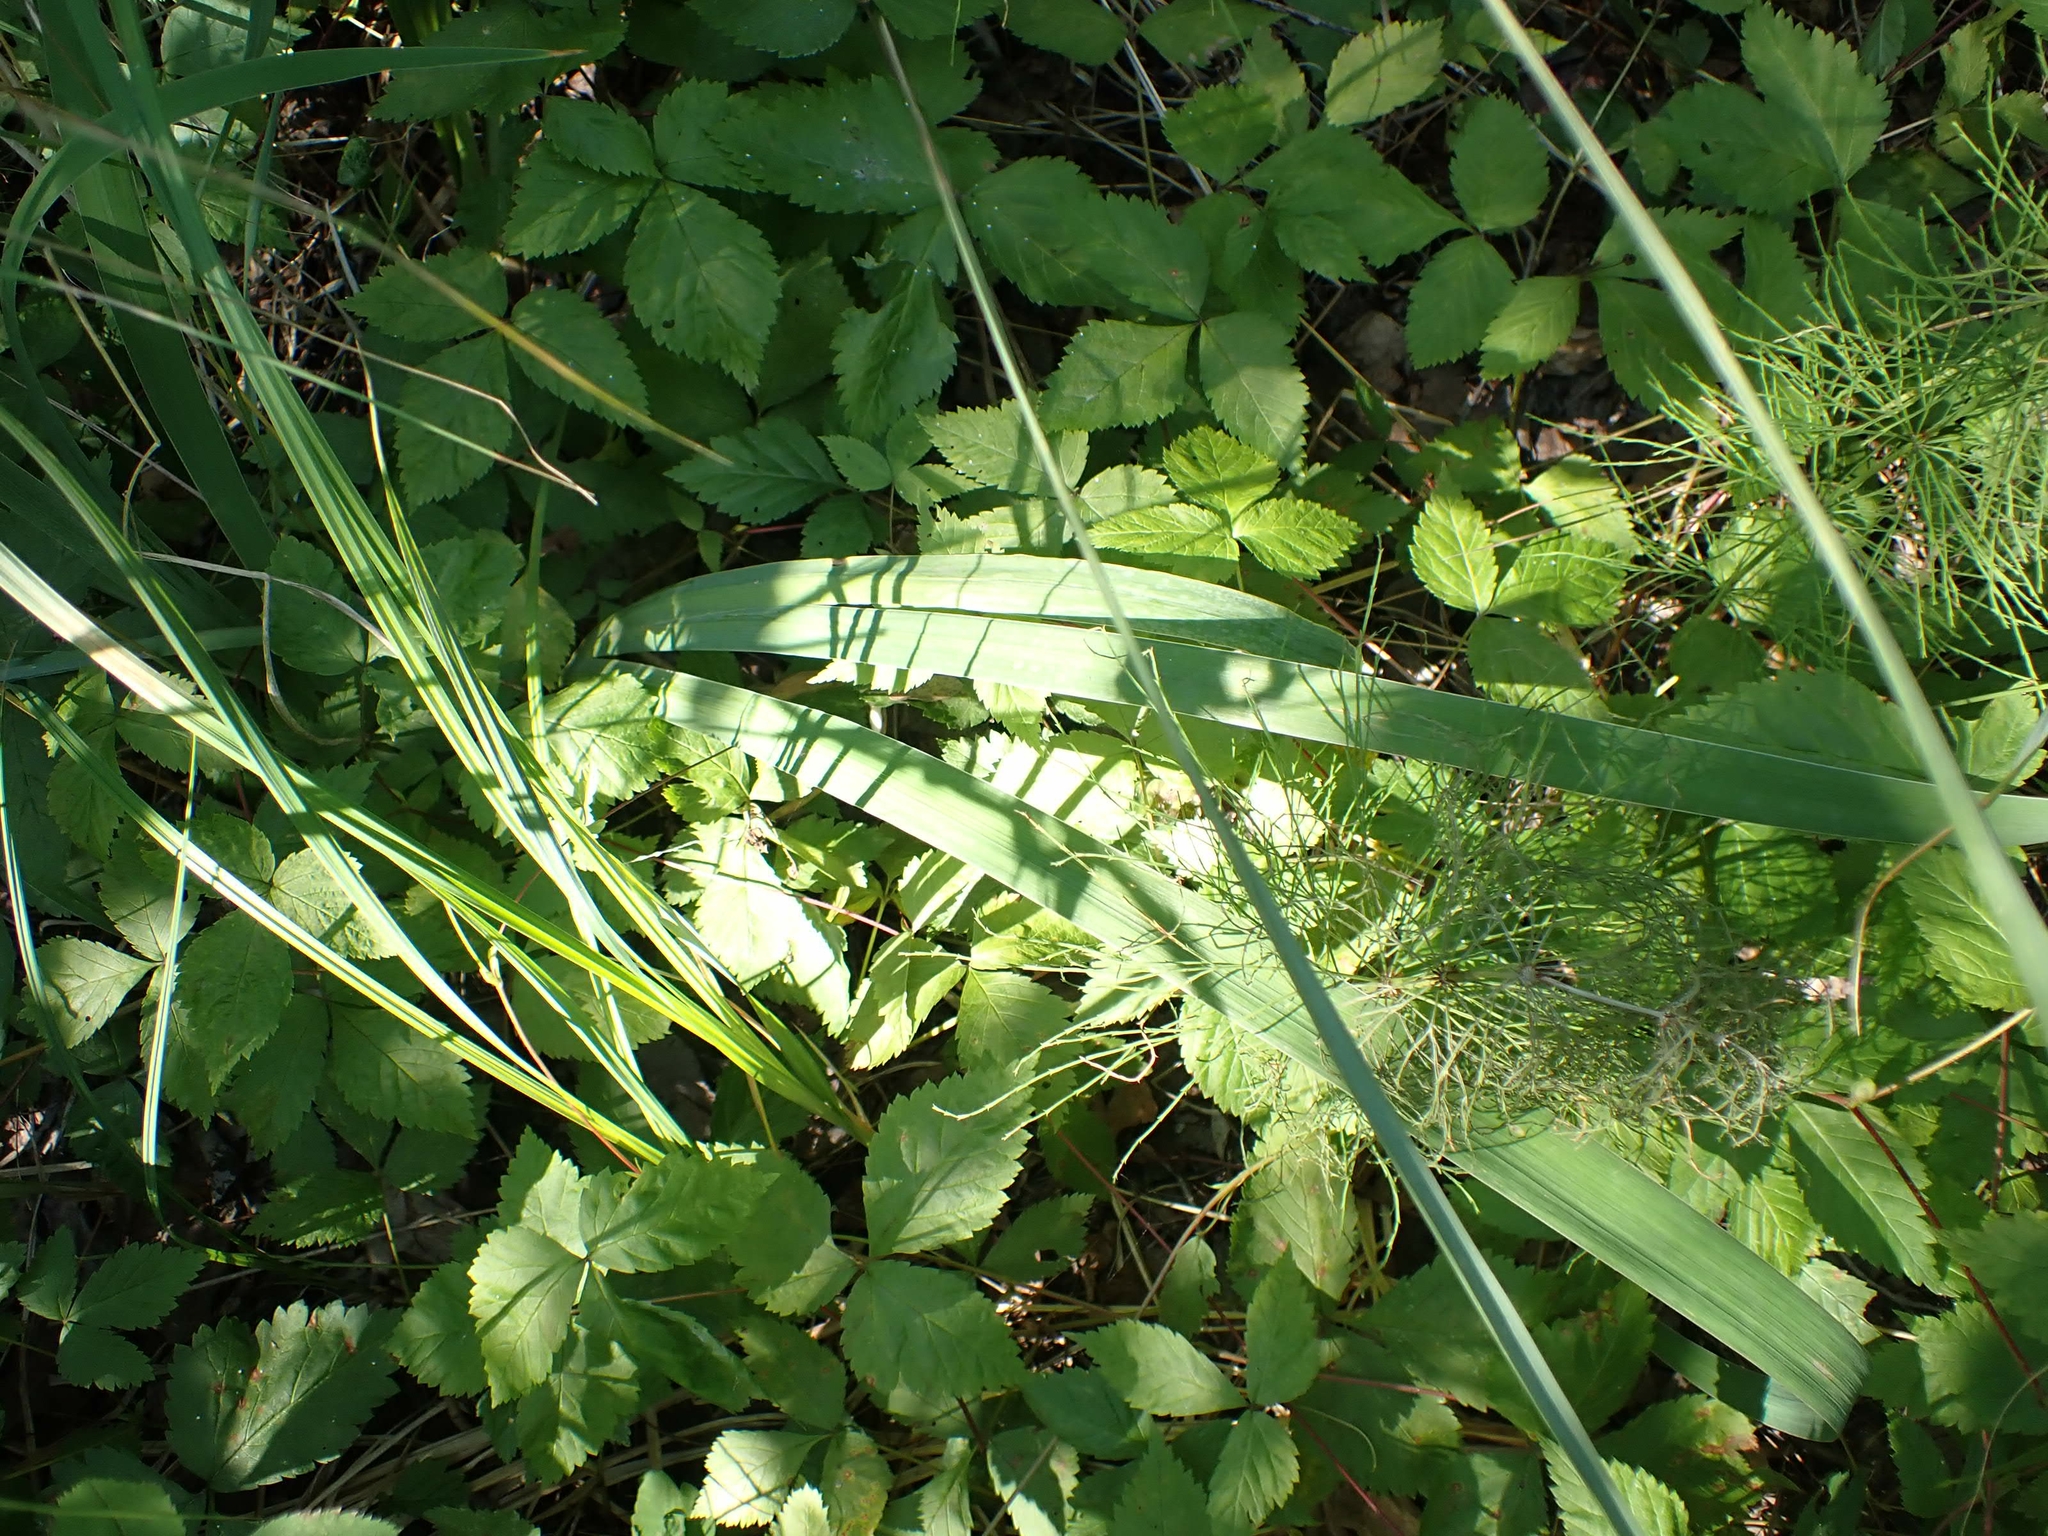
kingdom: Plantae
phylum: Tracheophyta
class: Liliopsida
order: Asparagales
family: Iridaceae
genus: Iris
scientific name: Iris versicolor
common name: Purple iris
